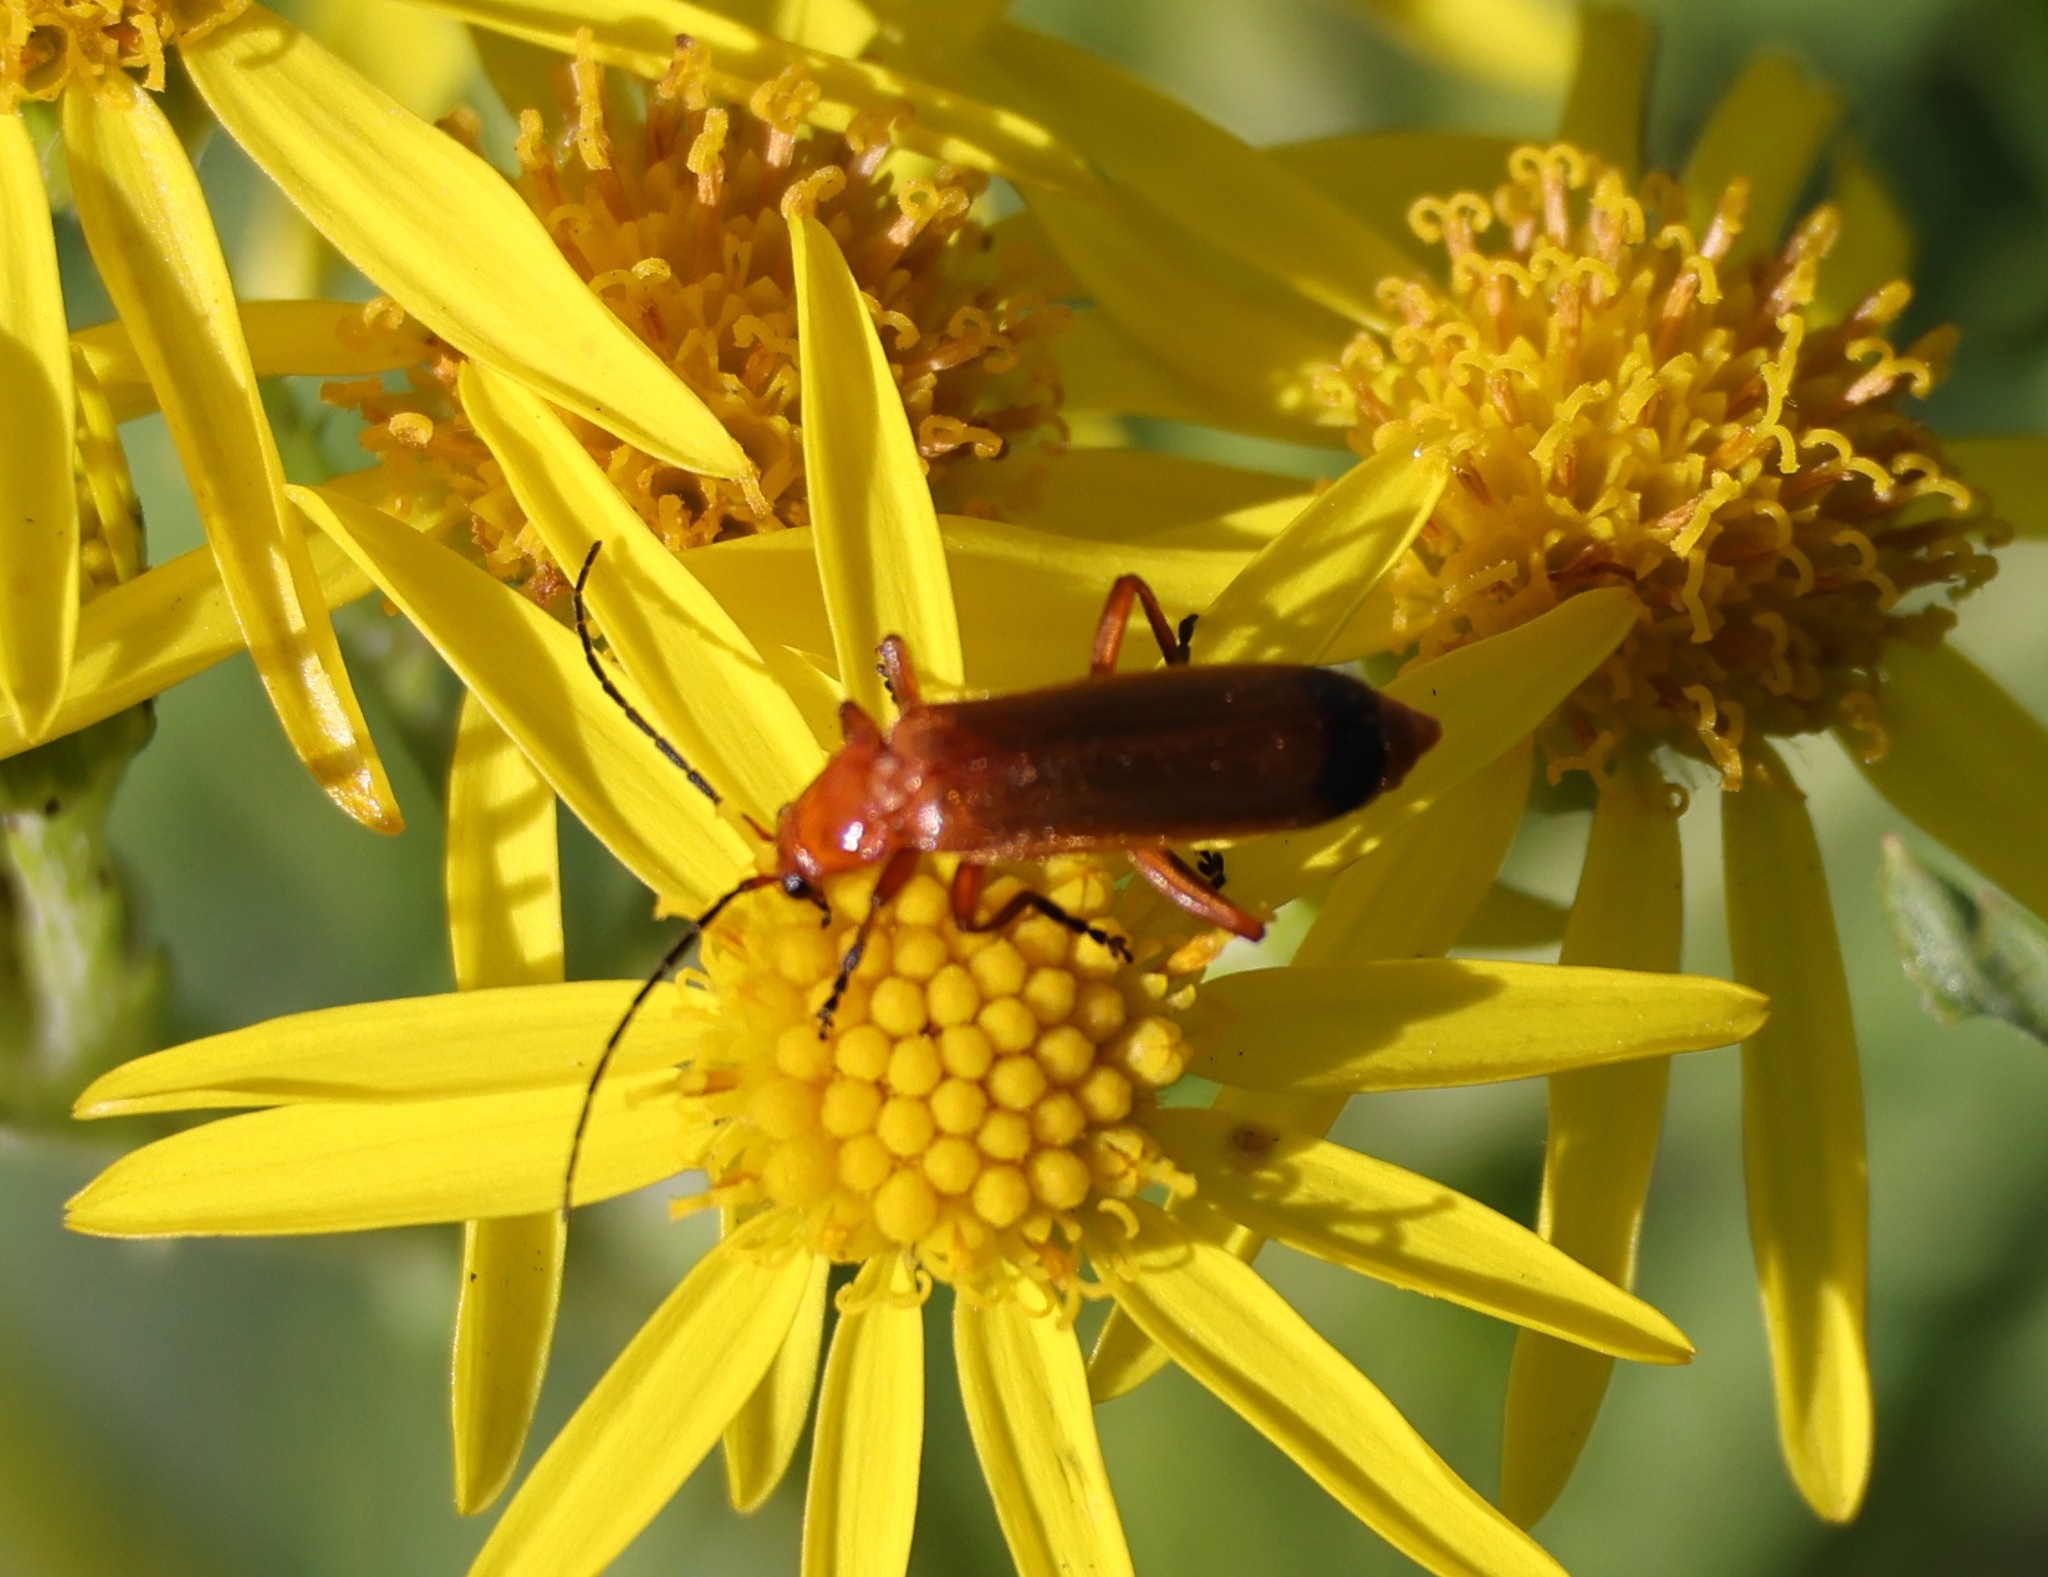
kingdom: Animalia
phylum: Arthropoda
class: Insecta
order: Coleoptera
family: Cantharidae
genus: Rhagonycha
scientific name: Rhagonycha fulva
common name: Common red soldier beetle
